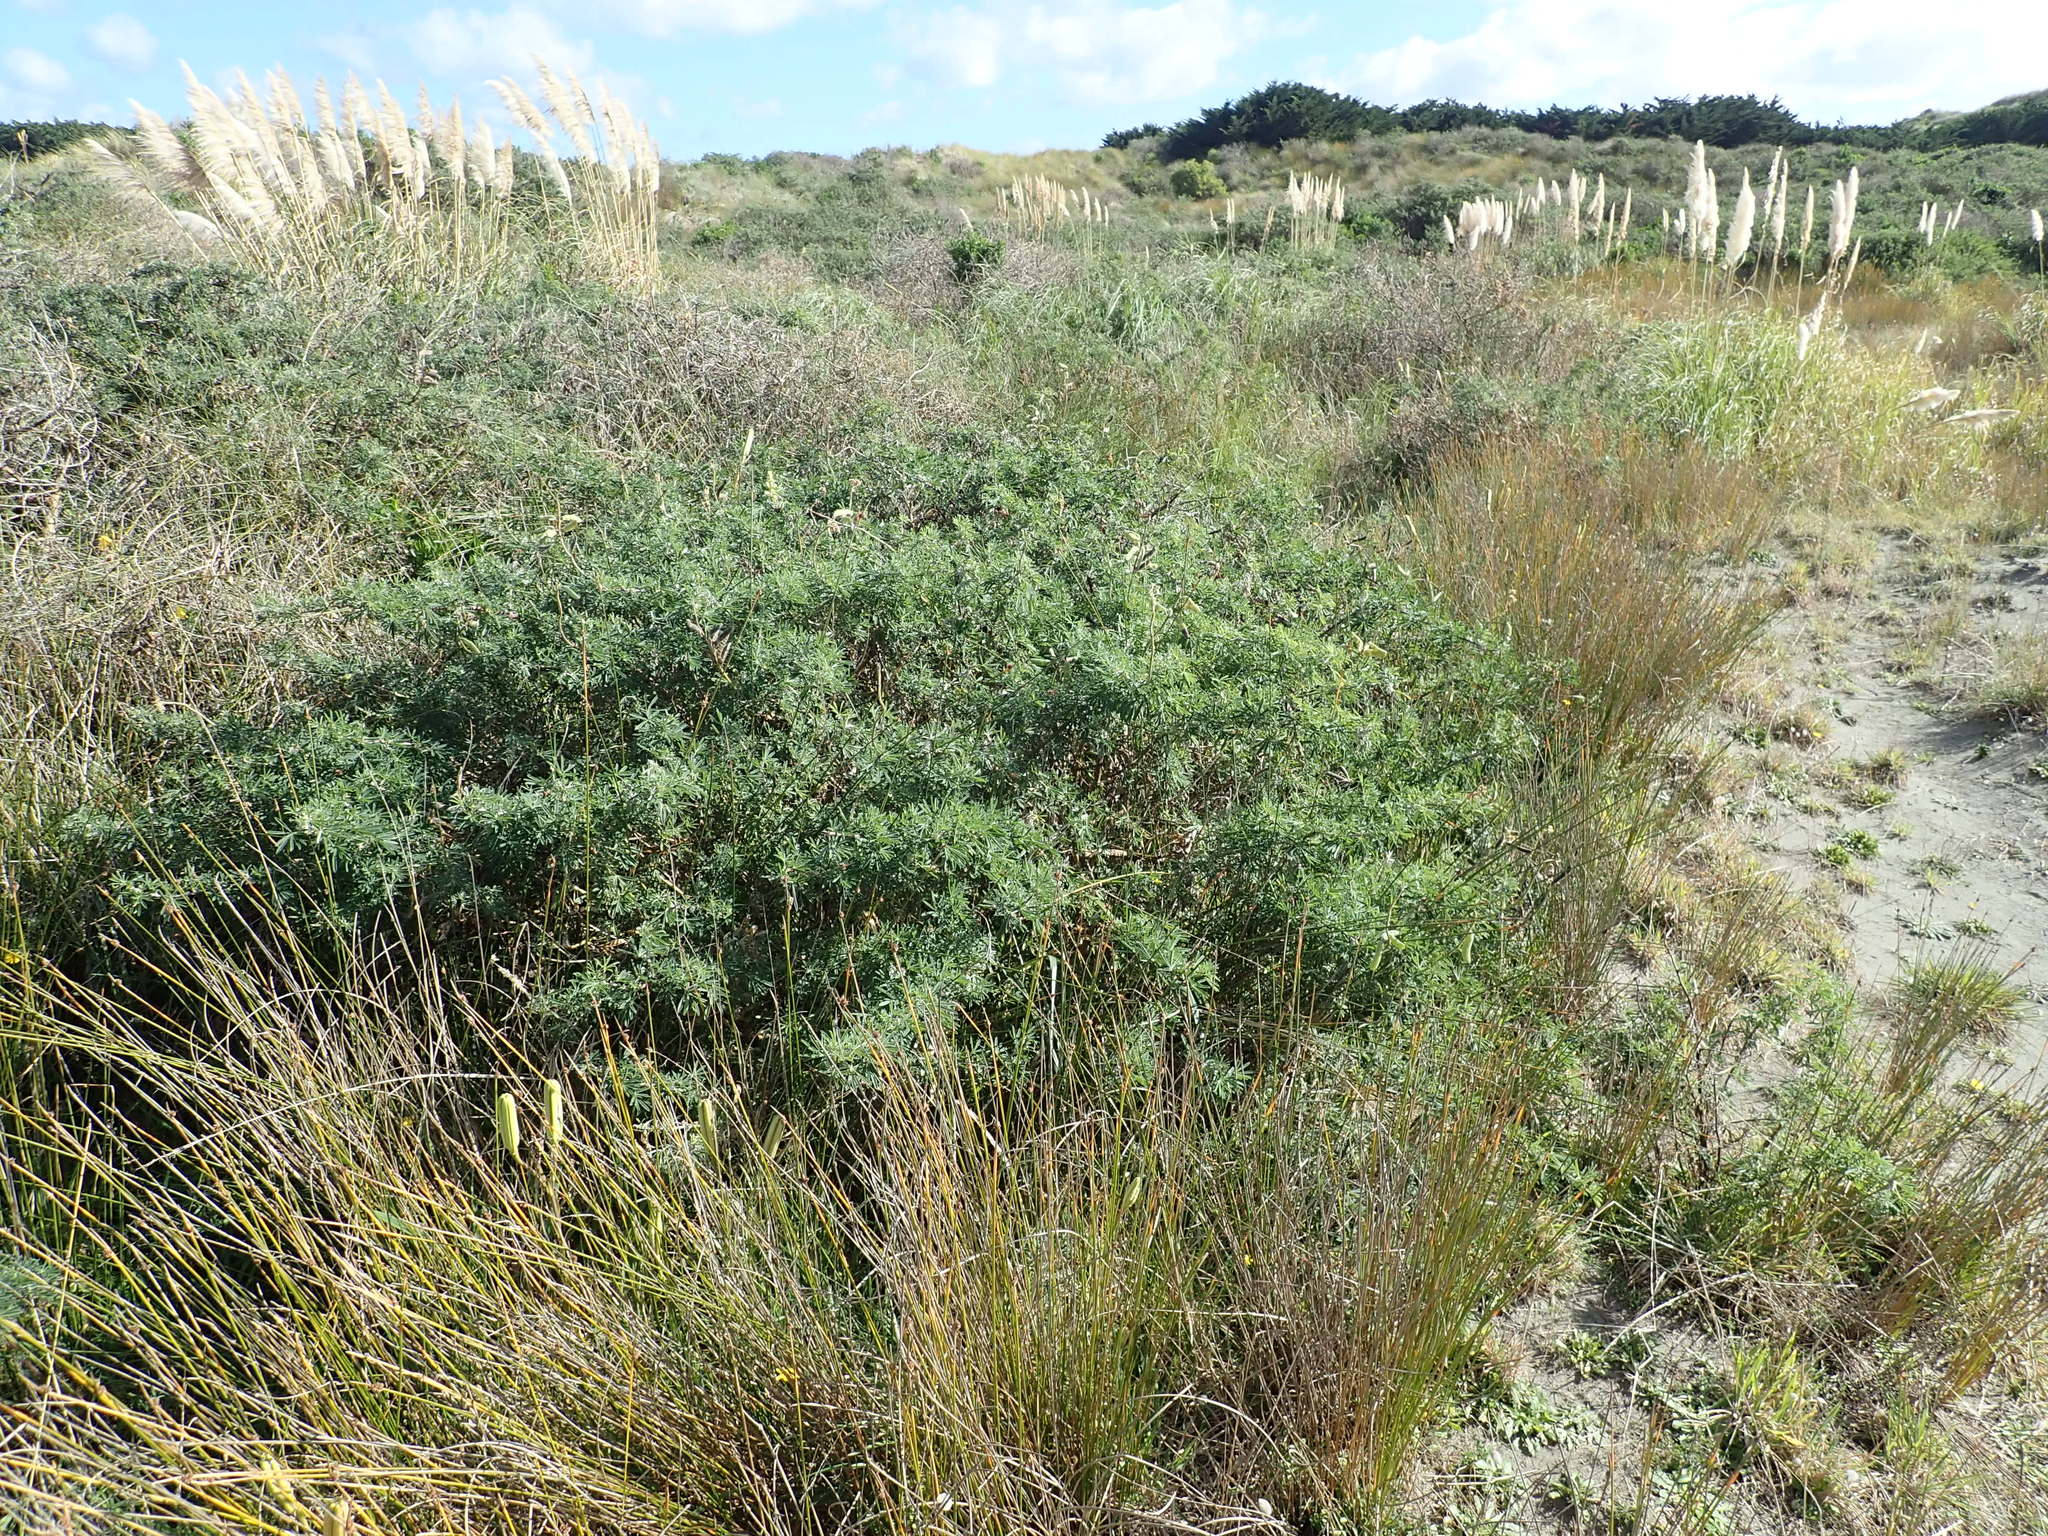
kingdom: Plantae
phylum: Tracheophyta
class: Magnoliopsida
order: Fabales
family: Fabaceae
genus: Lupinus
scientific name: Lupinus arboreus
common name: Yellow bush lupine
